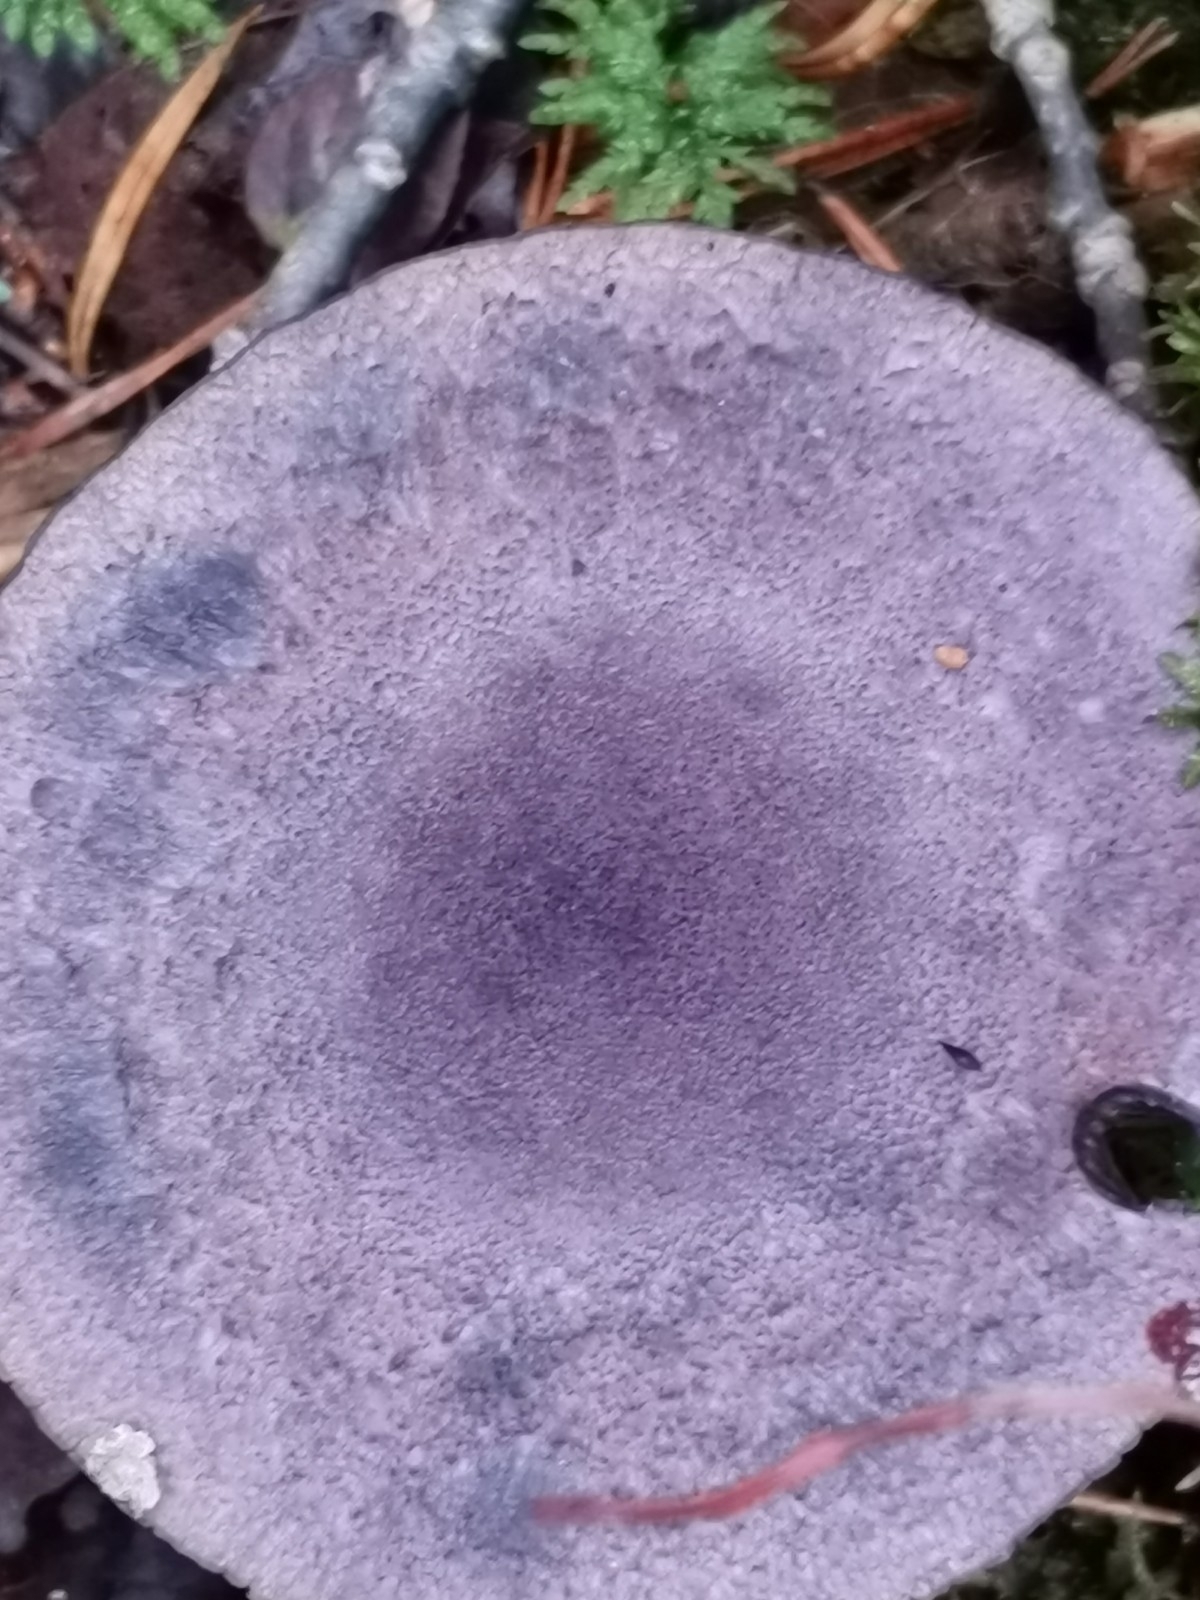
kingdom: Fungi
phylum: Basidiomycota
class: Agaricomycetes
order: Agaricales
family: Cortinariaceae
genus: Cortinarius
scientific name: Cortinarius violaceus
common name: Violet webcap
